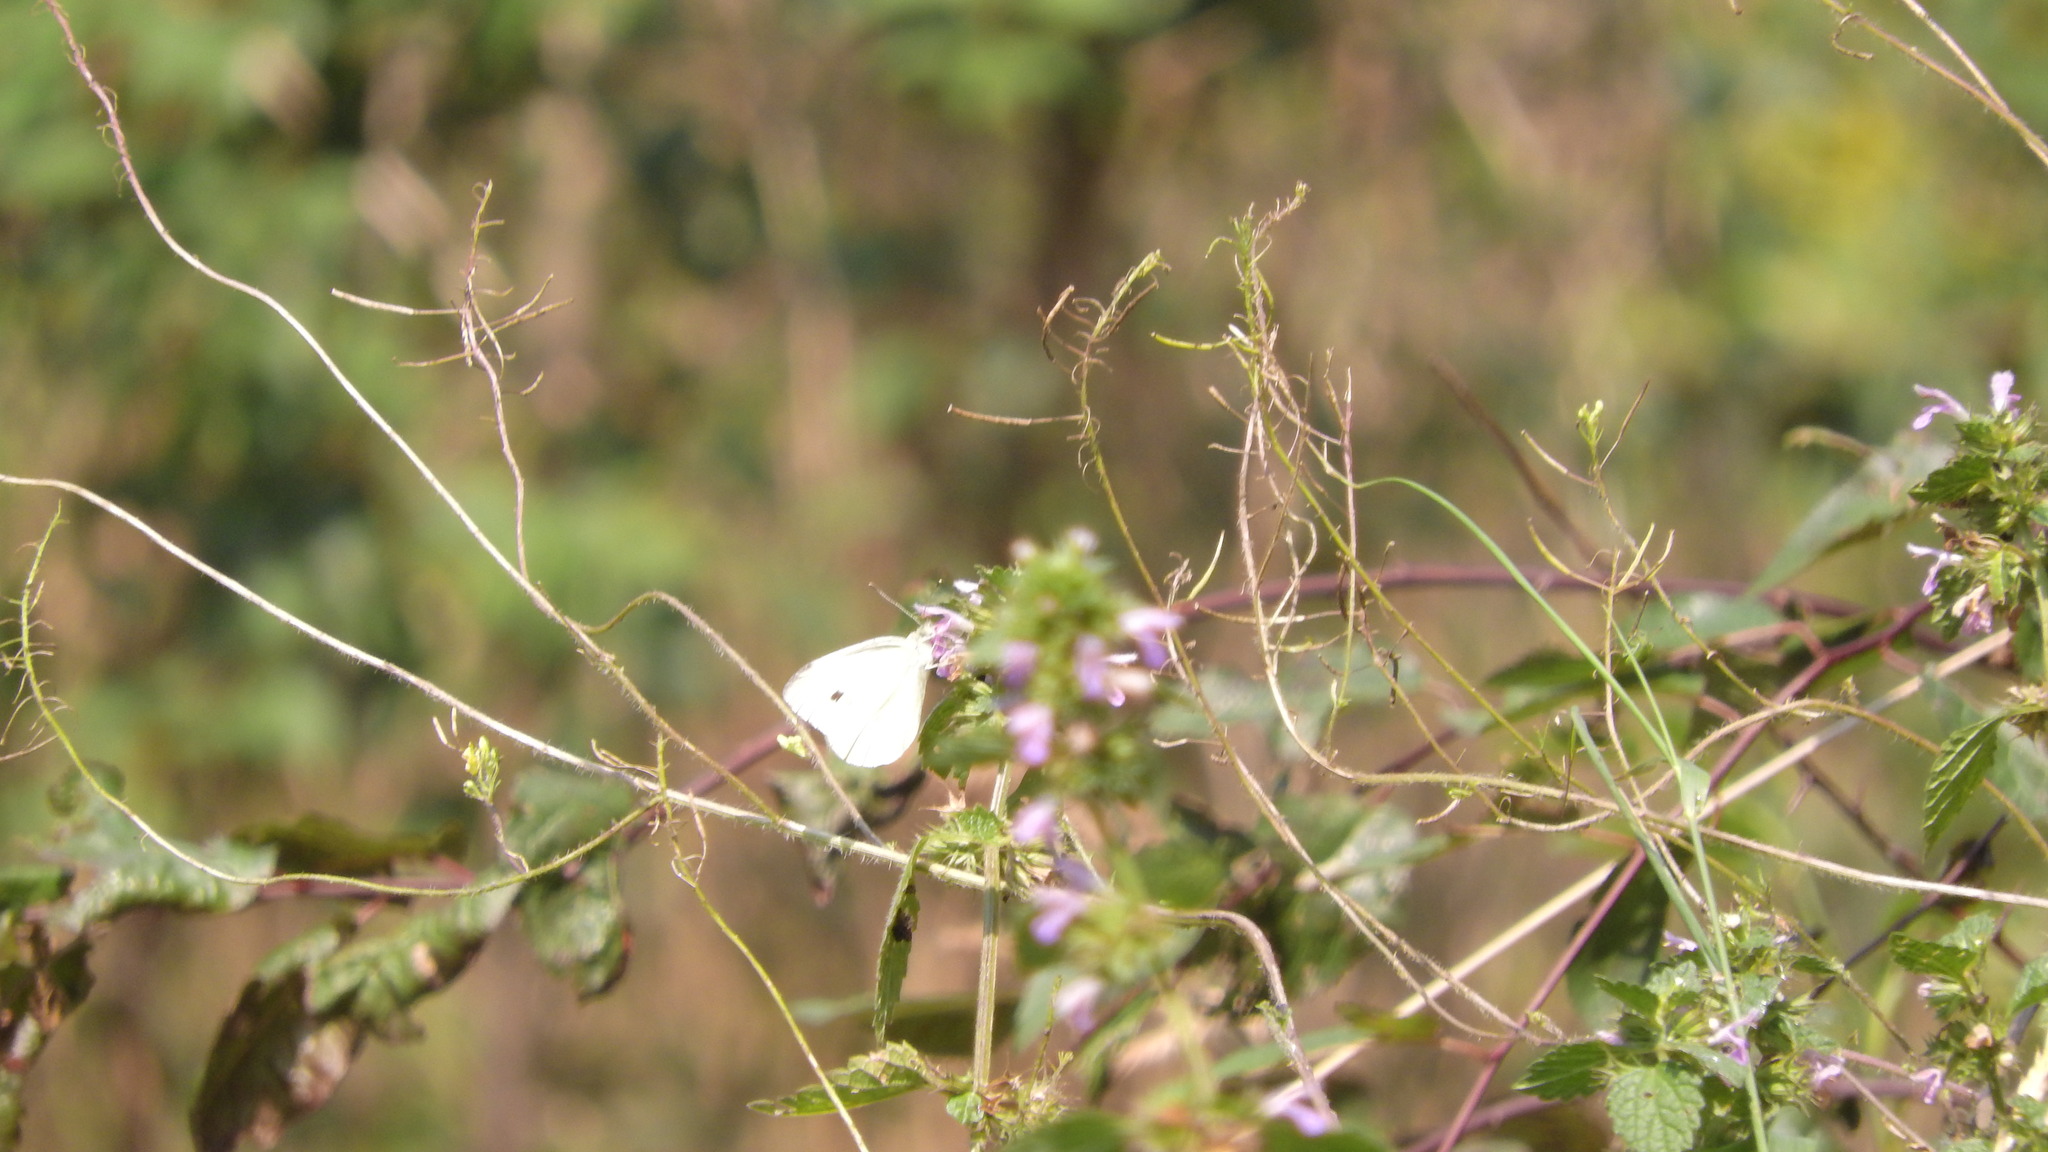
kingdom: Animalia
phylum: Arthropoda
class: Insecta
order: Lepidoptera
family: Pieridae
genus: Pieris
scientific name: Pieris rapae
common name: Small white
